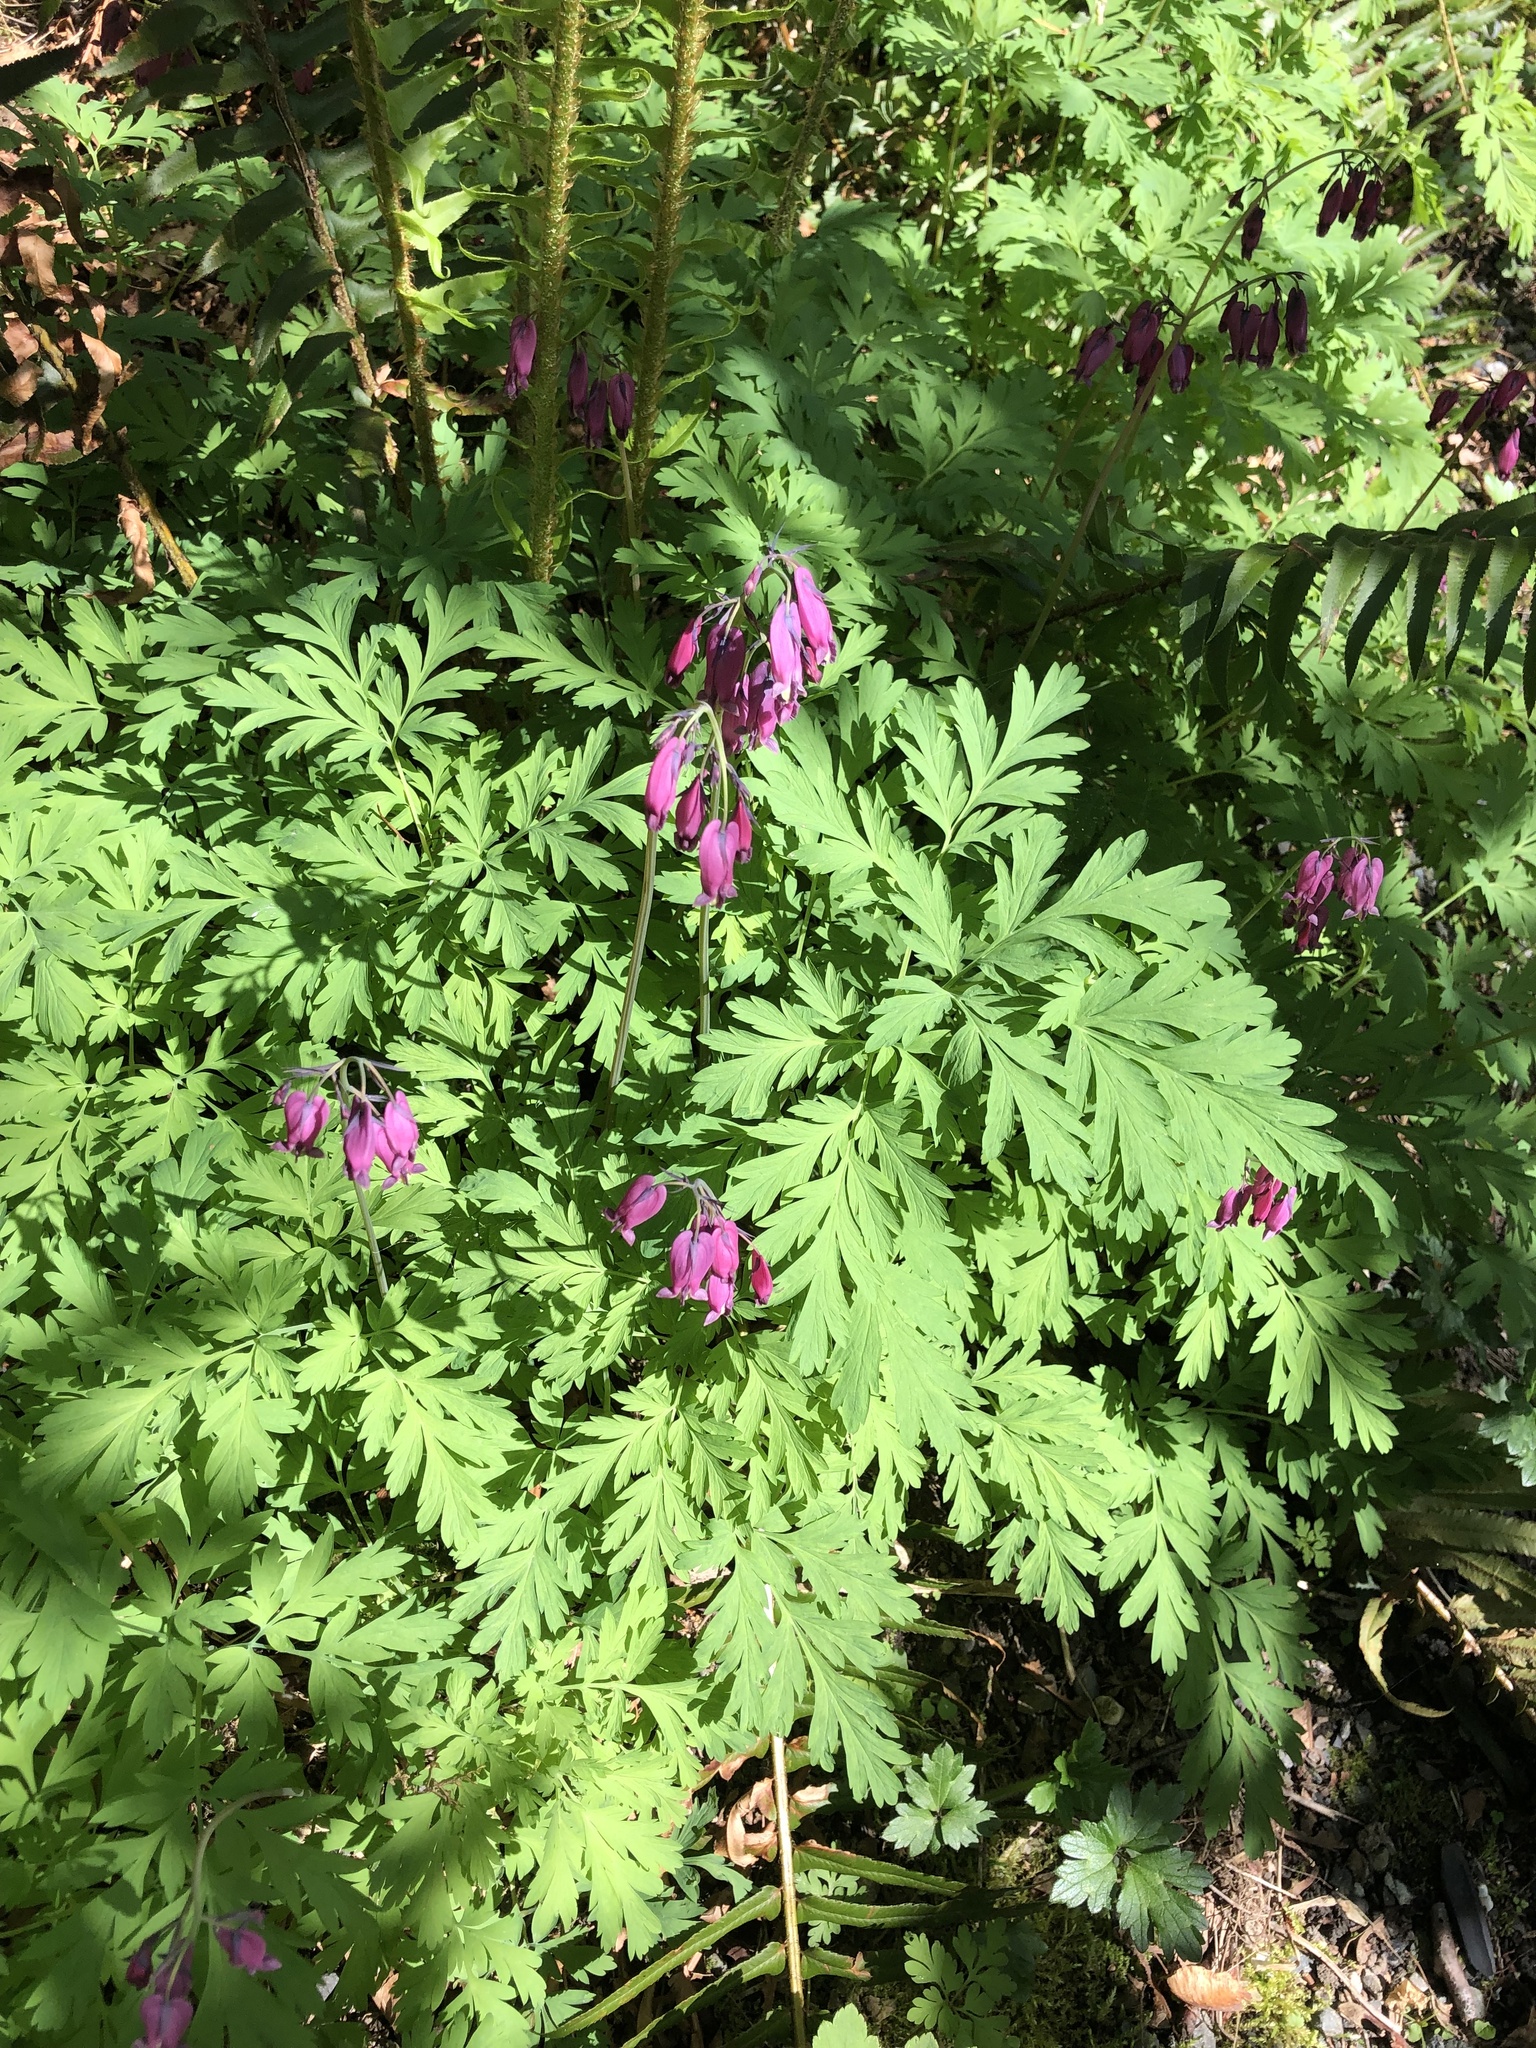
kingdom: Plantae
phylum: Tracheophyta
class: Magnoliopsida
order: Ranunculales
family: Papaveraceae
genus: Dicentra
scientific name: Dicentra formosa
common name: Bleeding-heart
